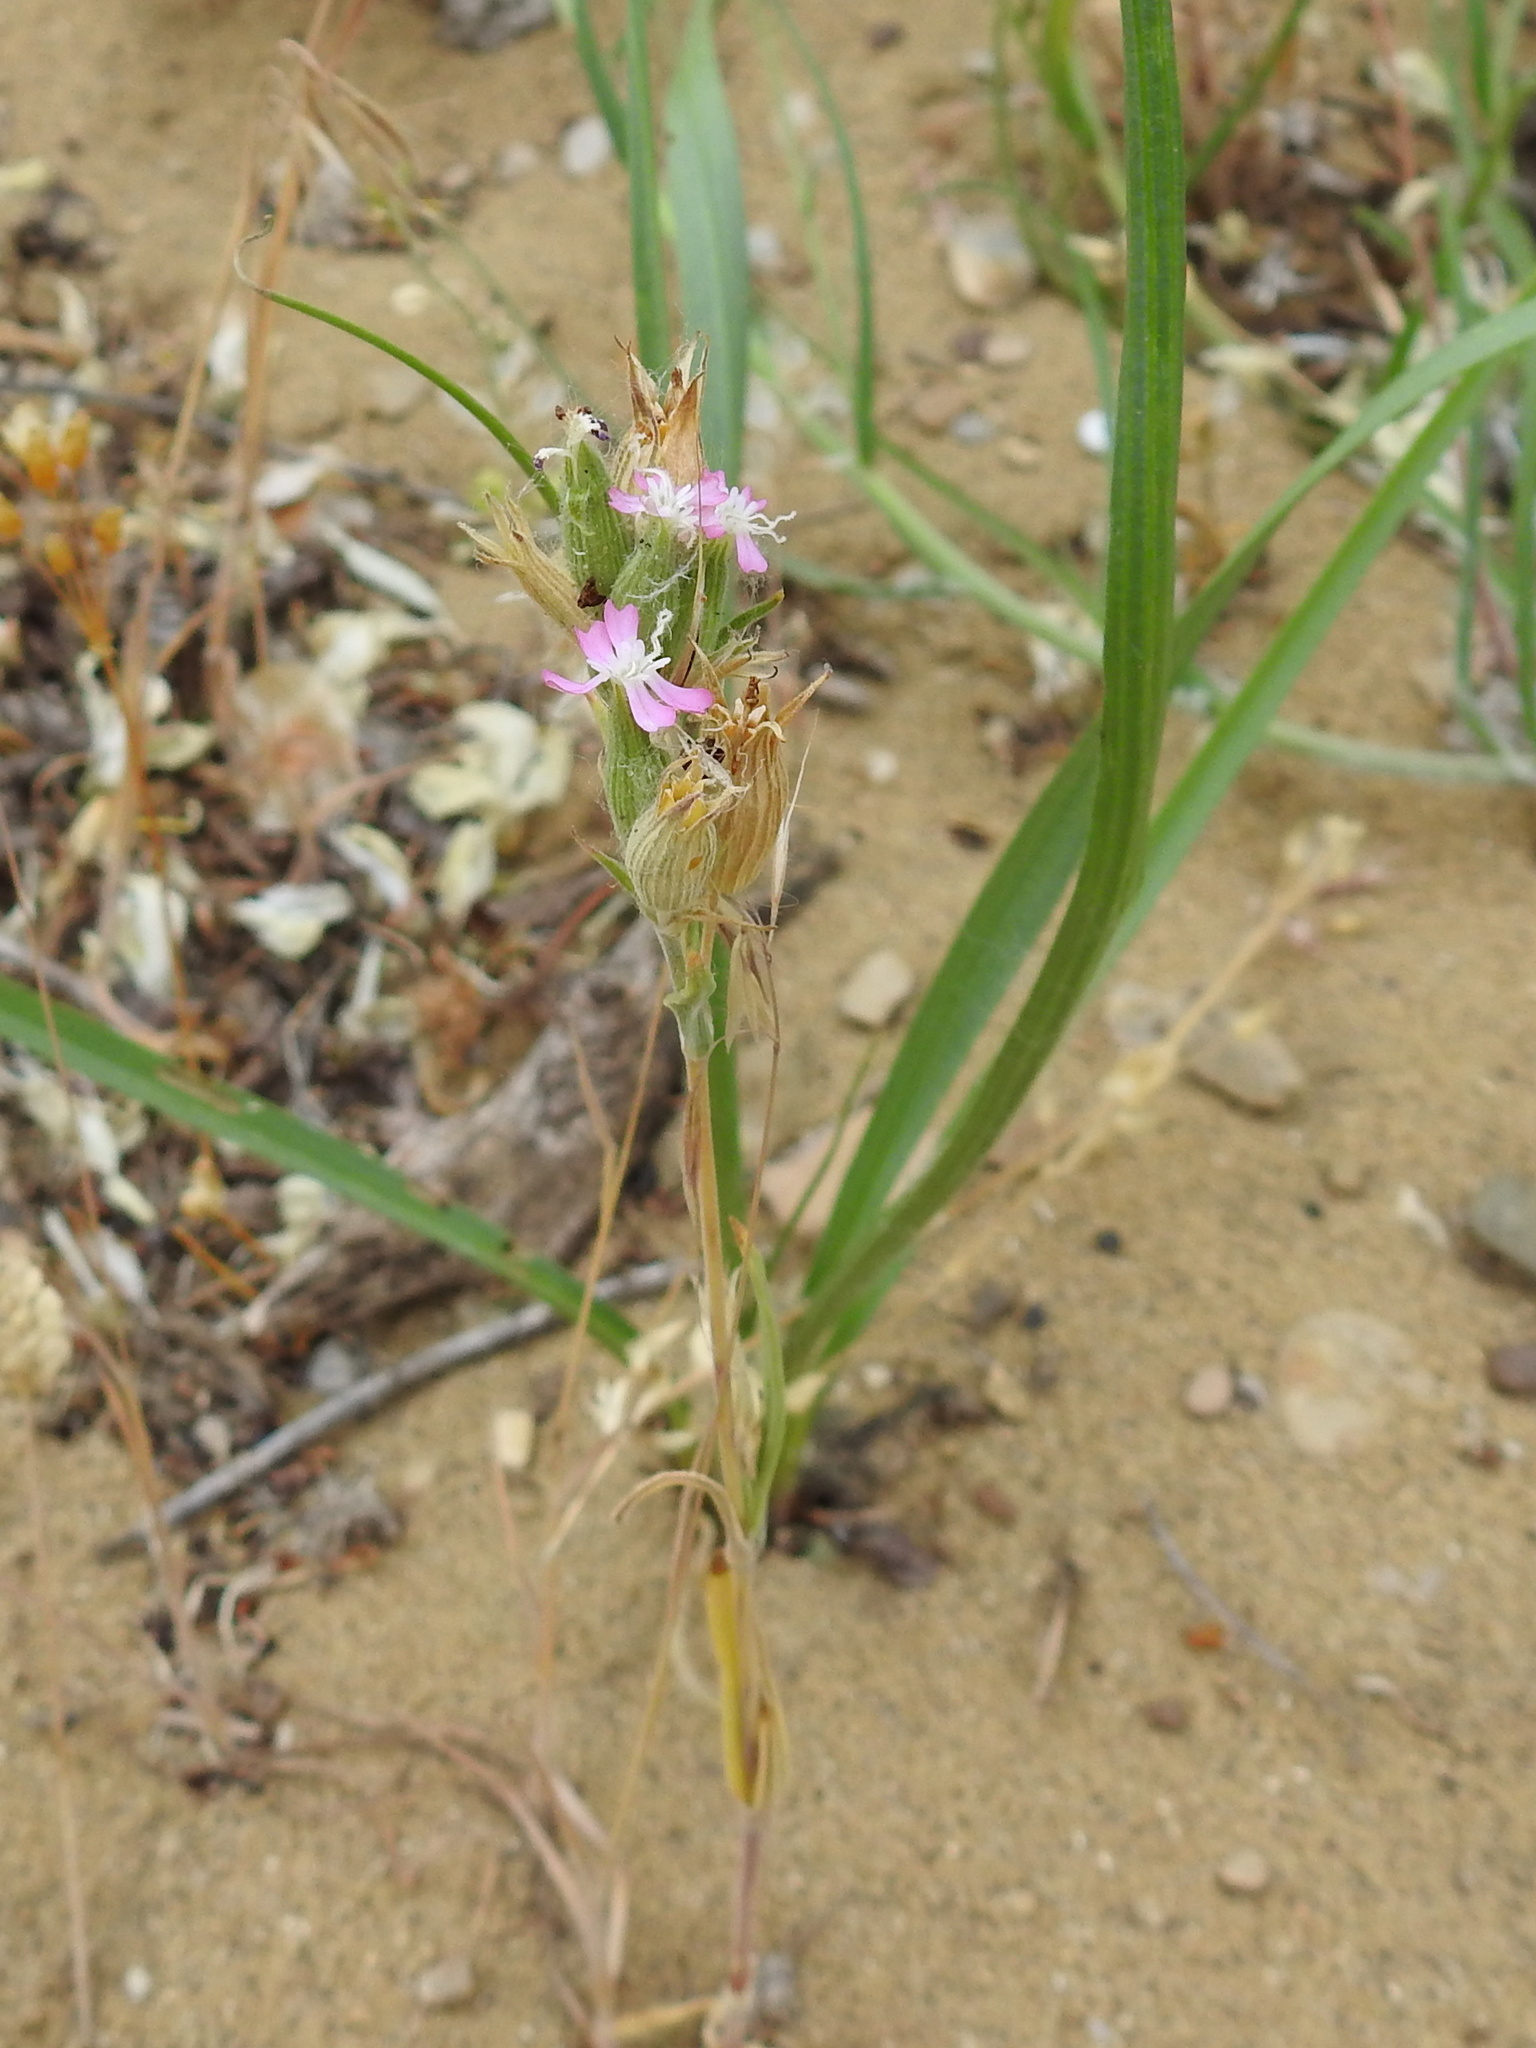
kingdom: Plantae
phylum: Tracheophyta
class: Magnoliopsida
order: Caryophyllales
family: Caryophyllaceae
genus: Silene
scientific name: Silene conica
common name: Sand catchfly
